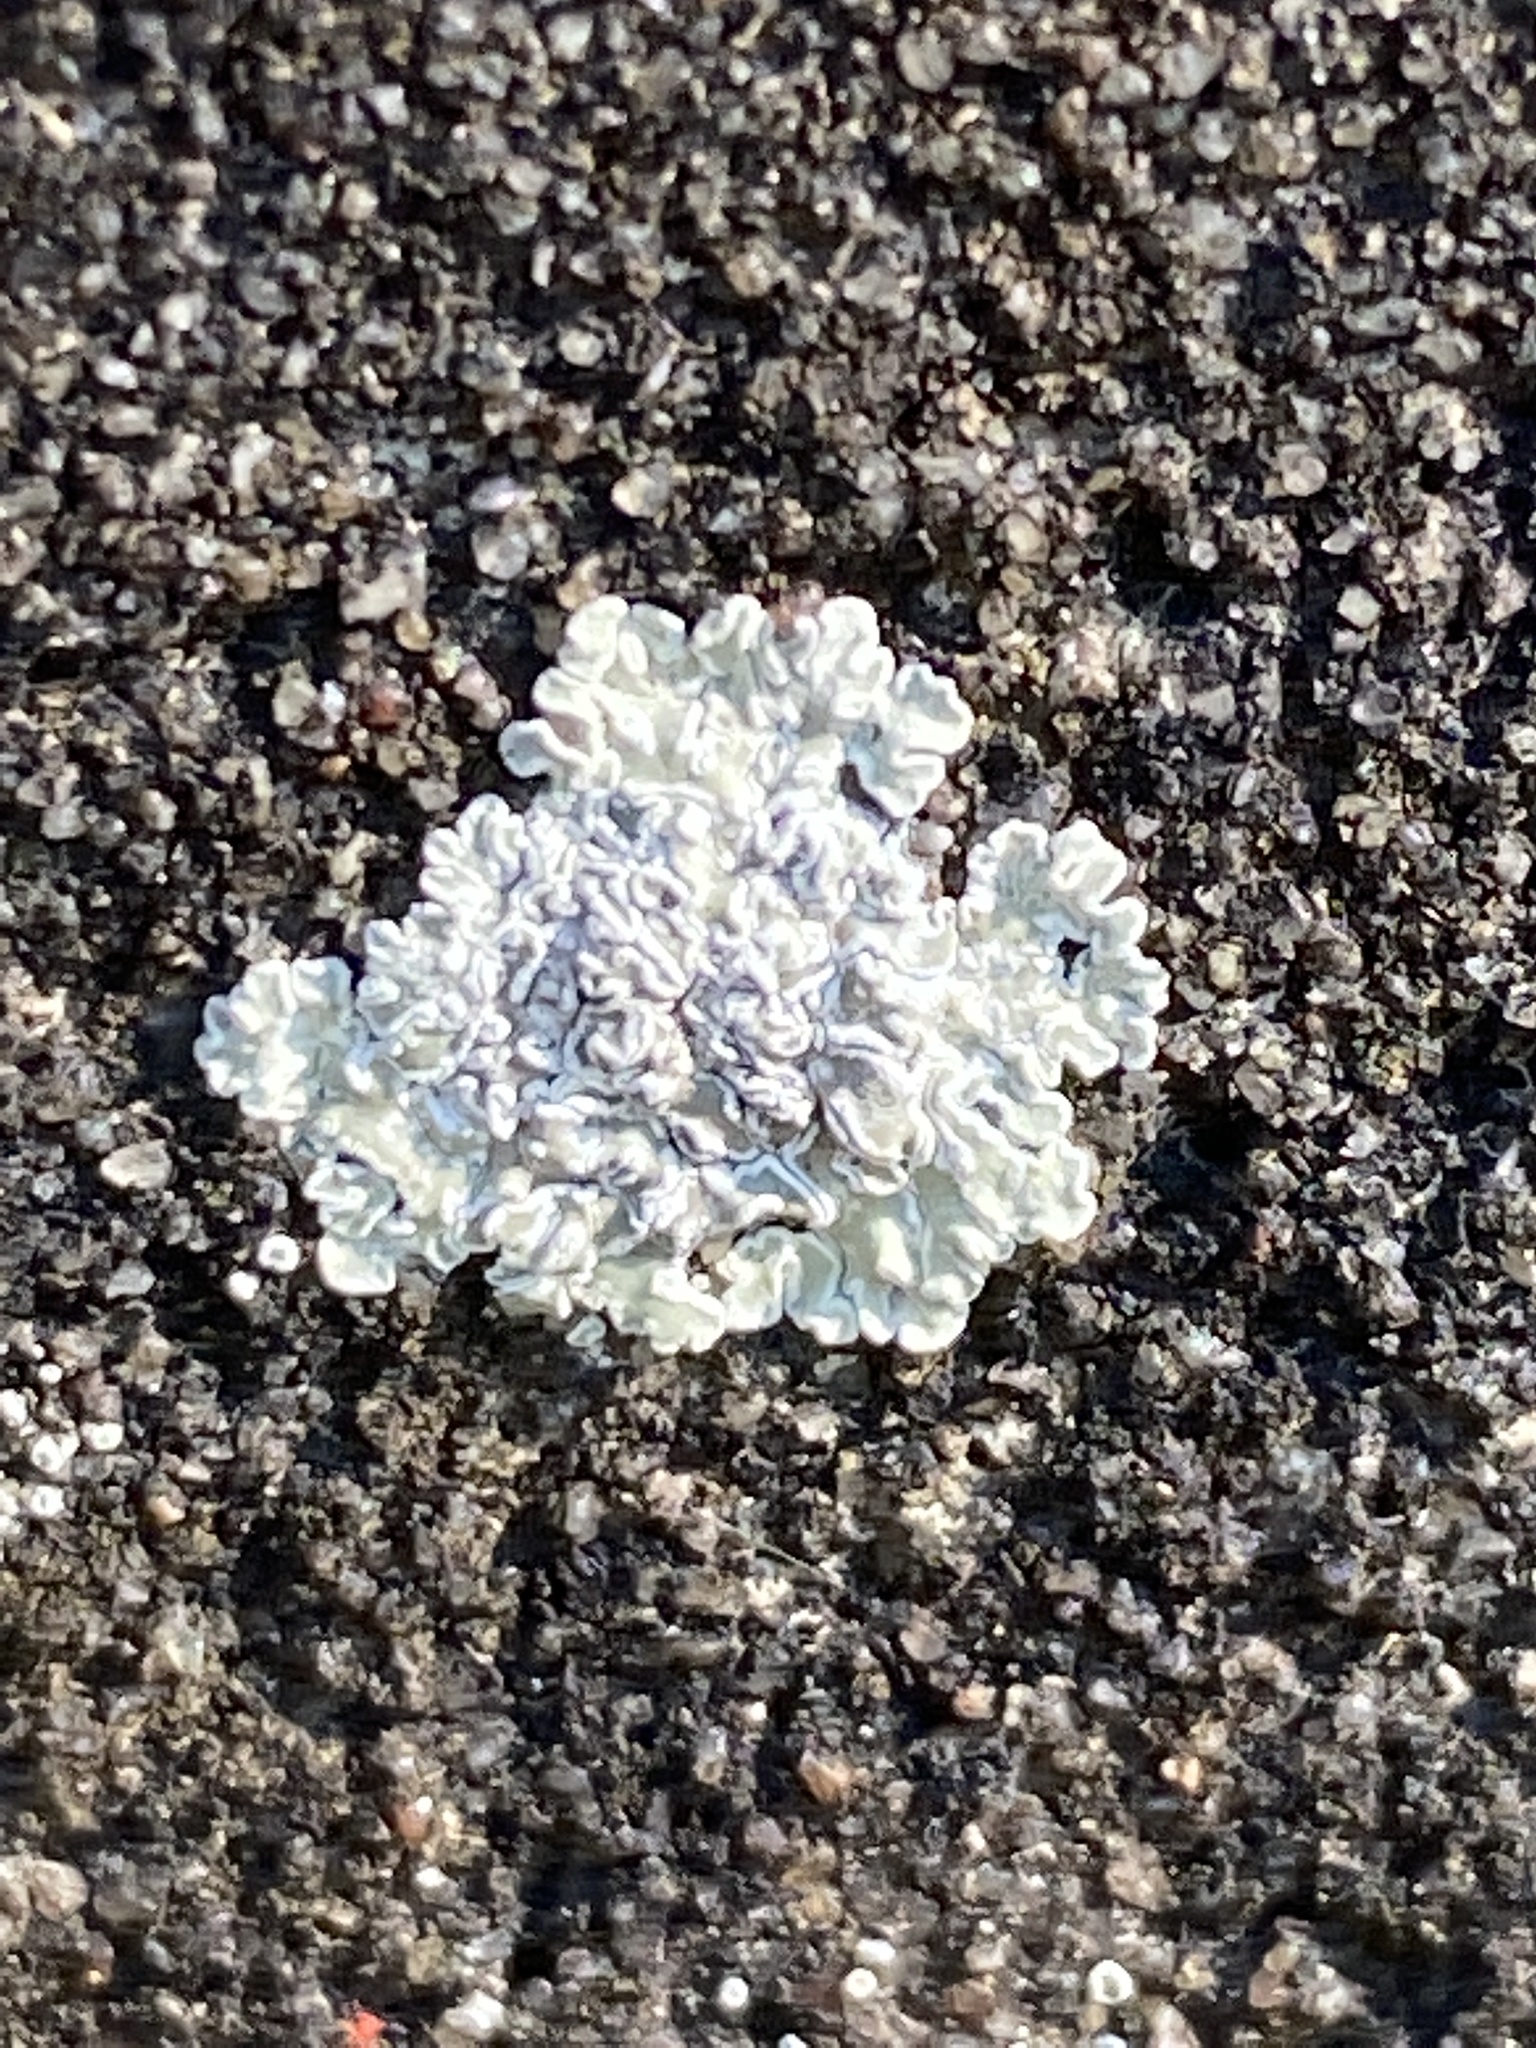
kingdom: Fungi
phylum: Ascomycota
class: Lecanoromycetes
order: Lecanorales
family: Lecanoraceae
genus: Protoparmeliopsis
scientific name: Protoparmeliopsis muralis
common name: Stonewall rim lichen
